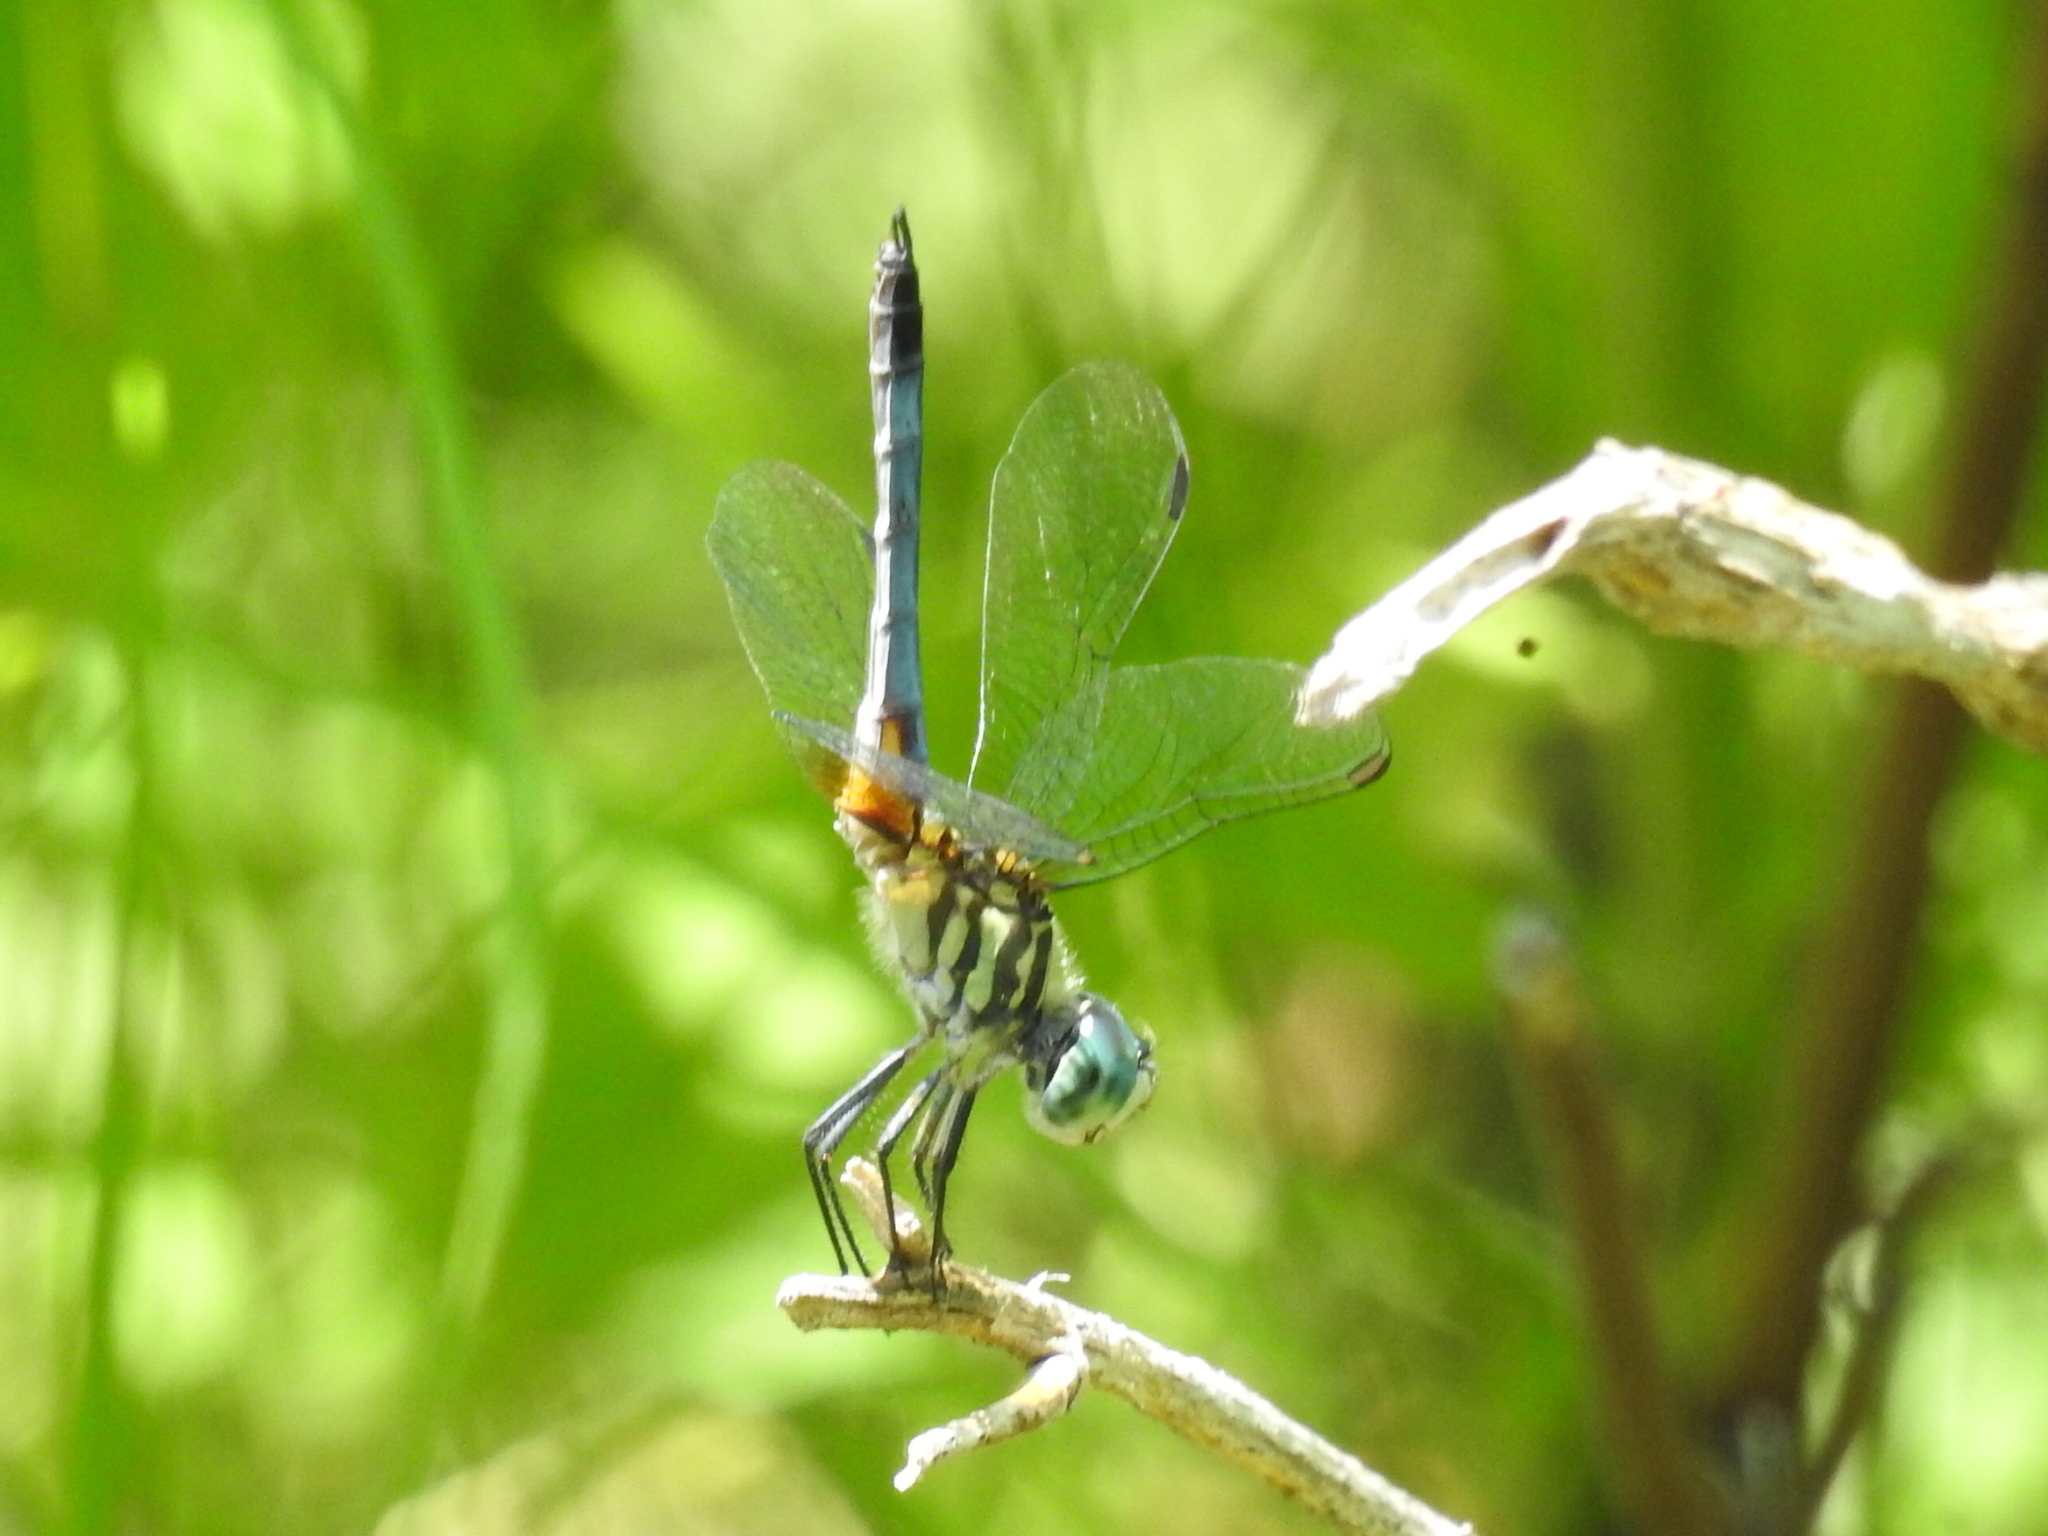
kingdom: Animalia
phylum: Arthropoda
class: Insecta
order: Odonata
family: Libellulidae
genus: Pachydiplax
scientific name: Pachydiplax longipennis
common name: Blue dasher
